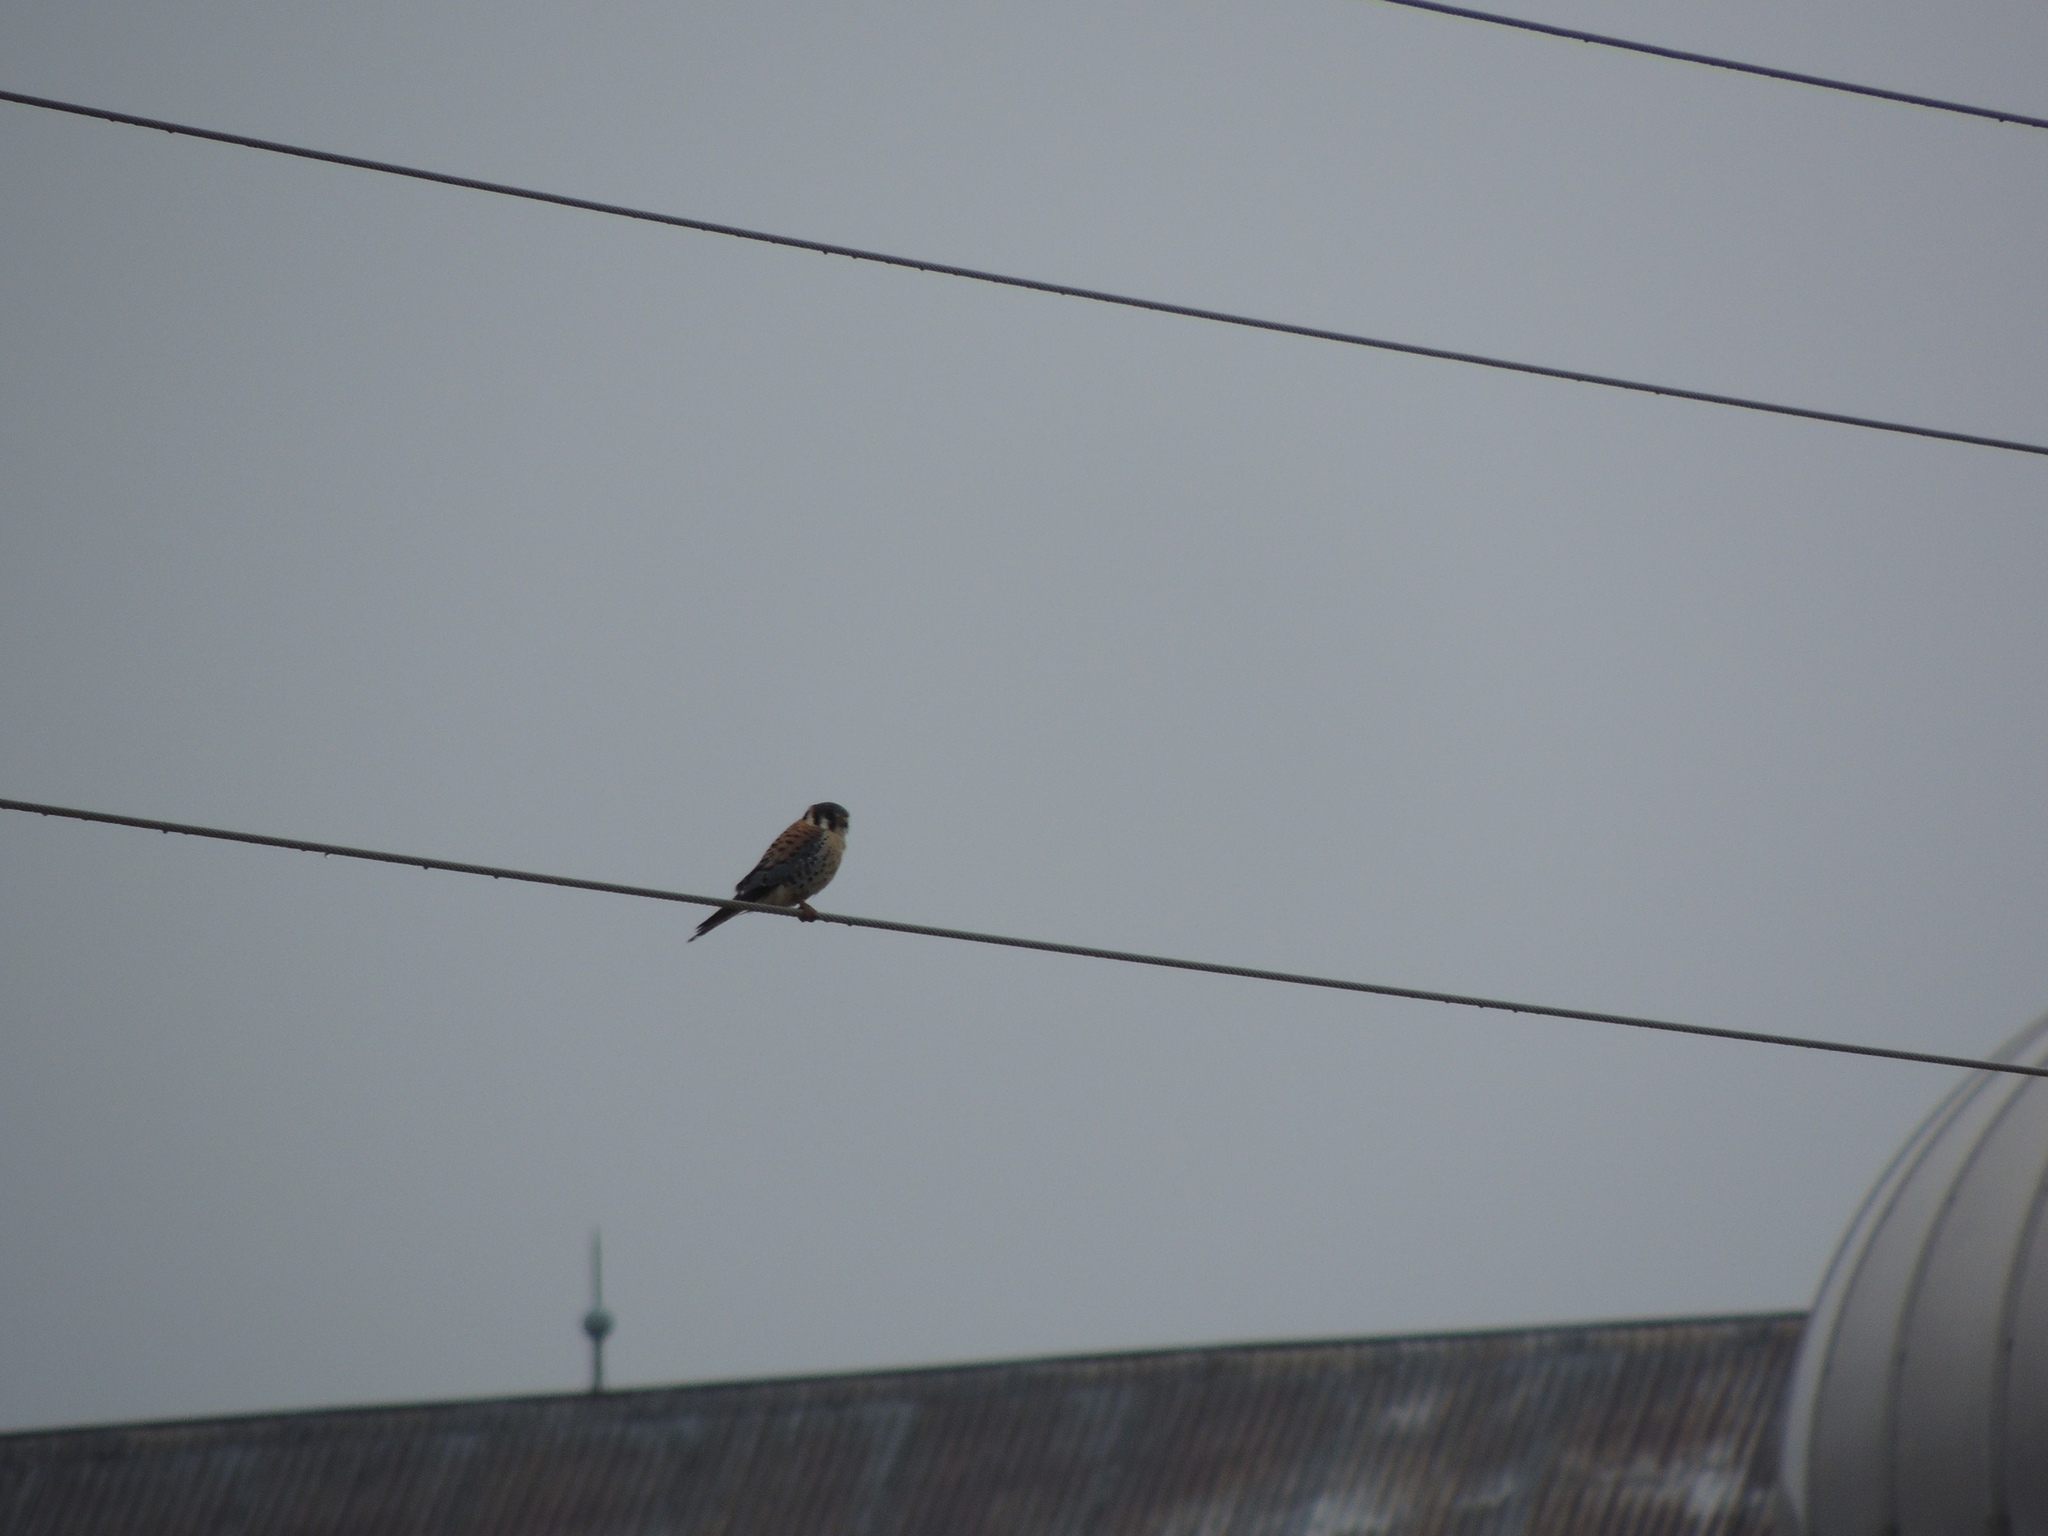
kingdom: Animalia
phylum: Chordata
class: Aves
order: Falconiformes
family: Falconidae
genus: Falco
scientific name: Falco sparverius
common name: American kestrel
